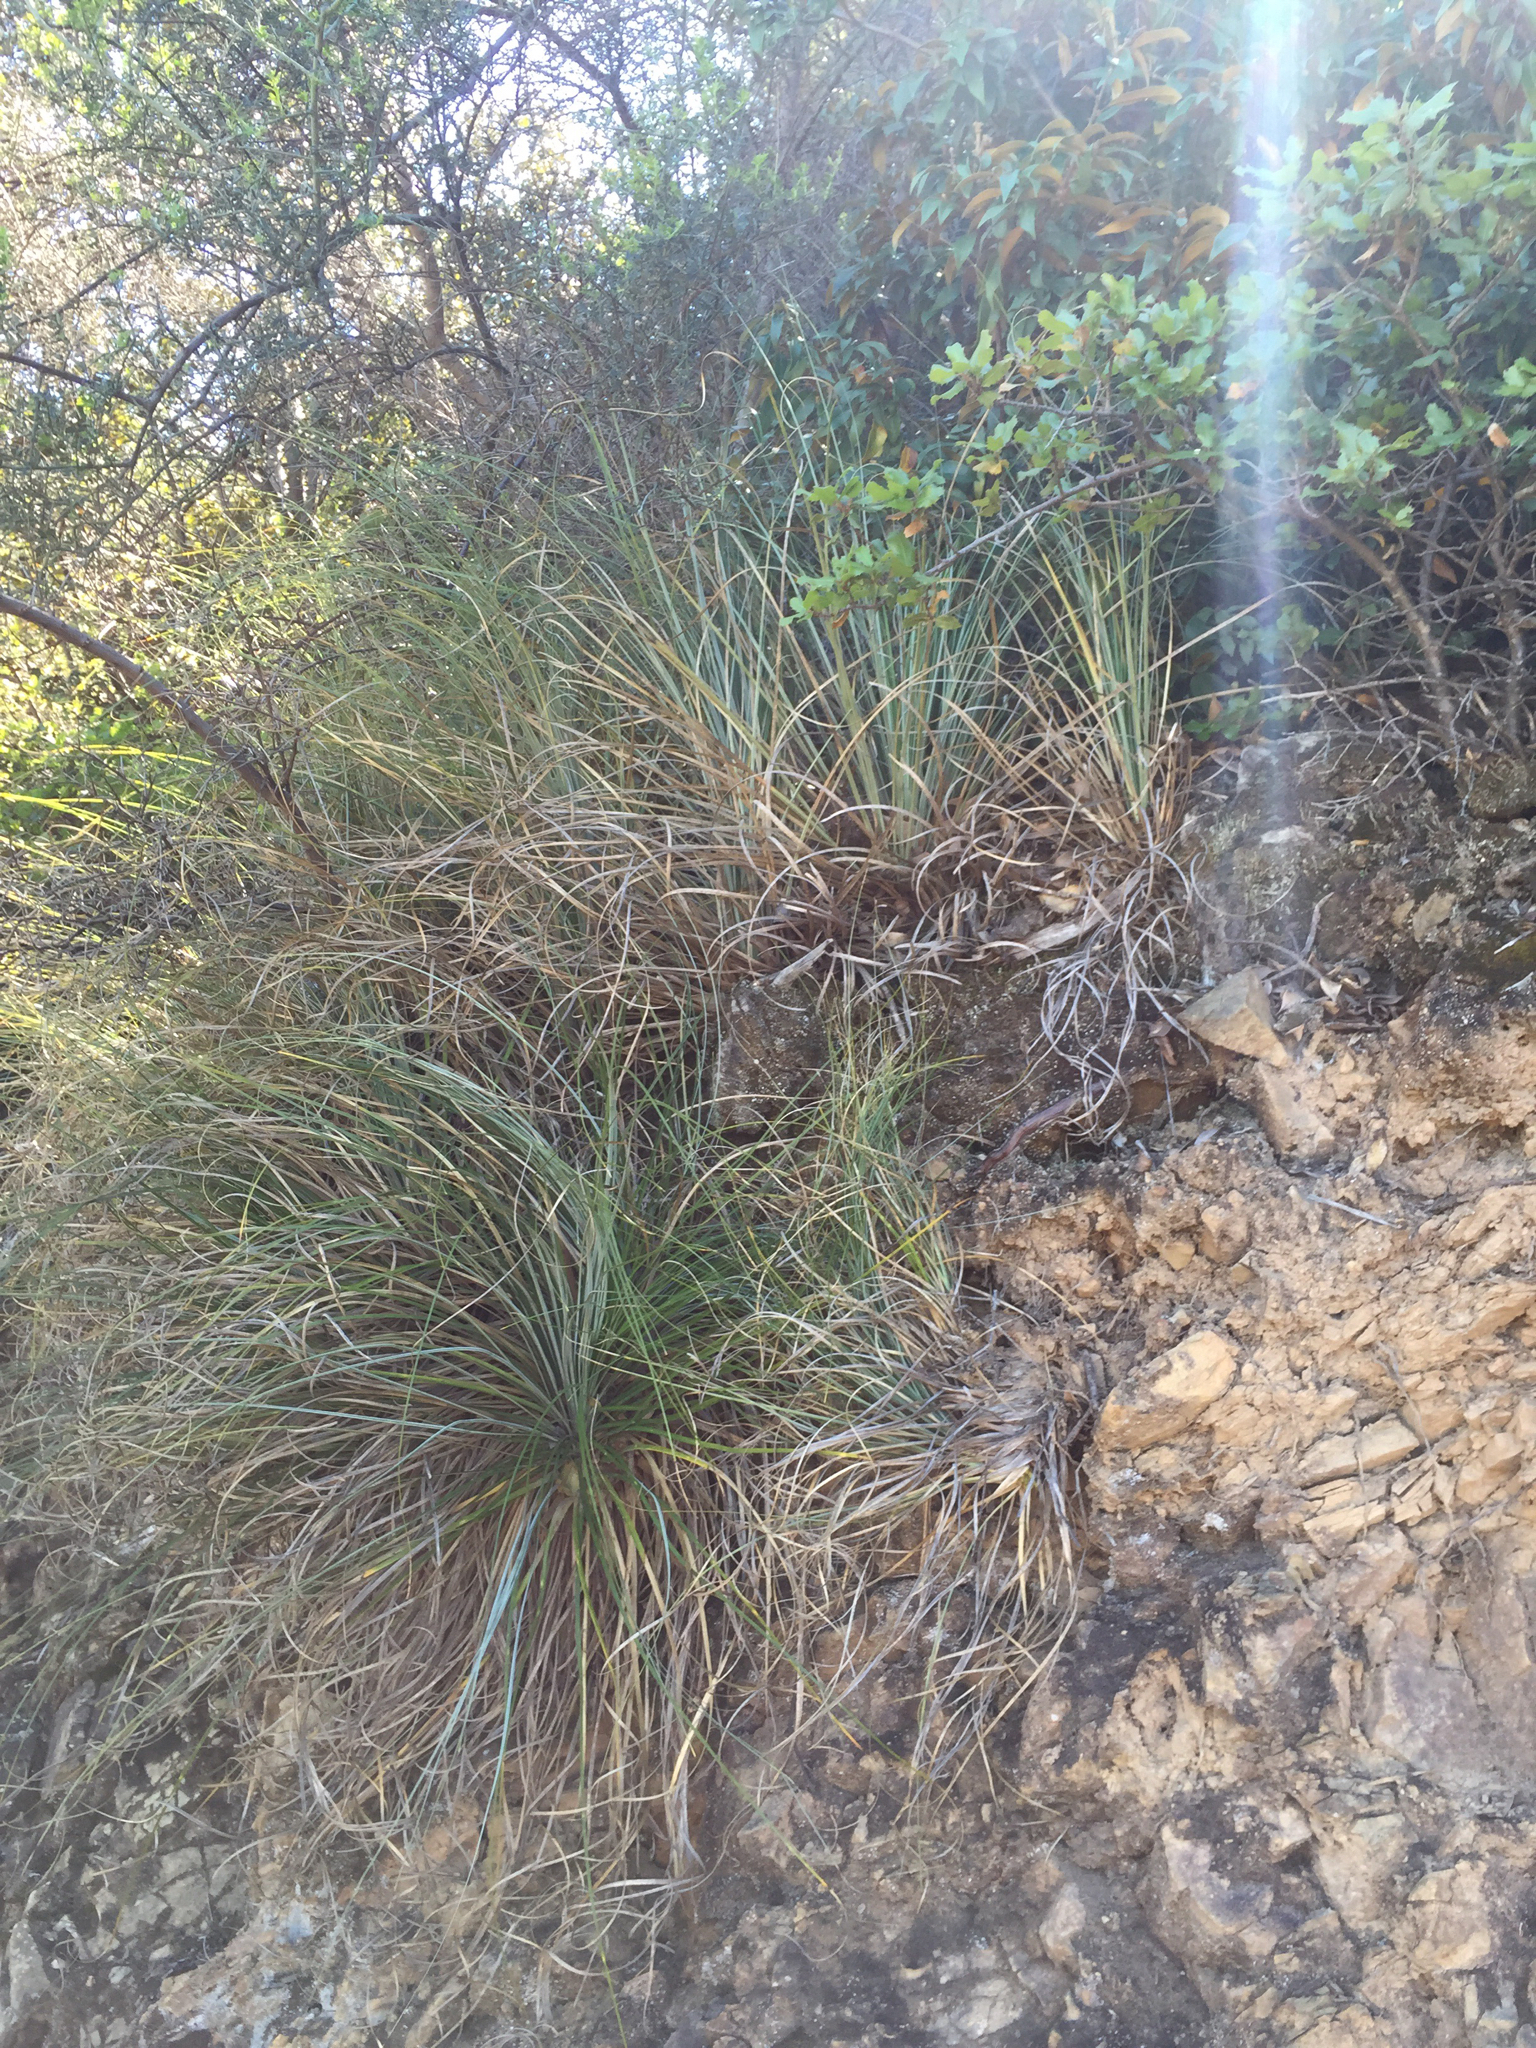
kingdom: Plantae
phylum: Tracheophyta
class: Liliopsida
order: Liliales
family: Melanthiaceae
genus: Xerophyllum
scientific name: Xerophyllum tenax
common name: Bear-grass
